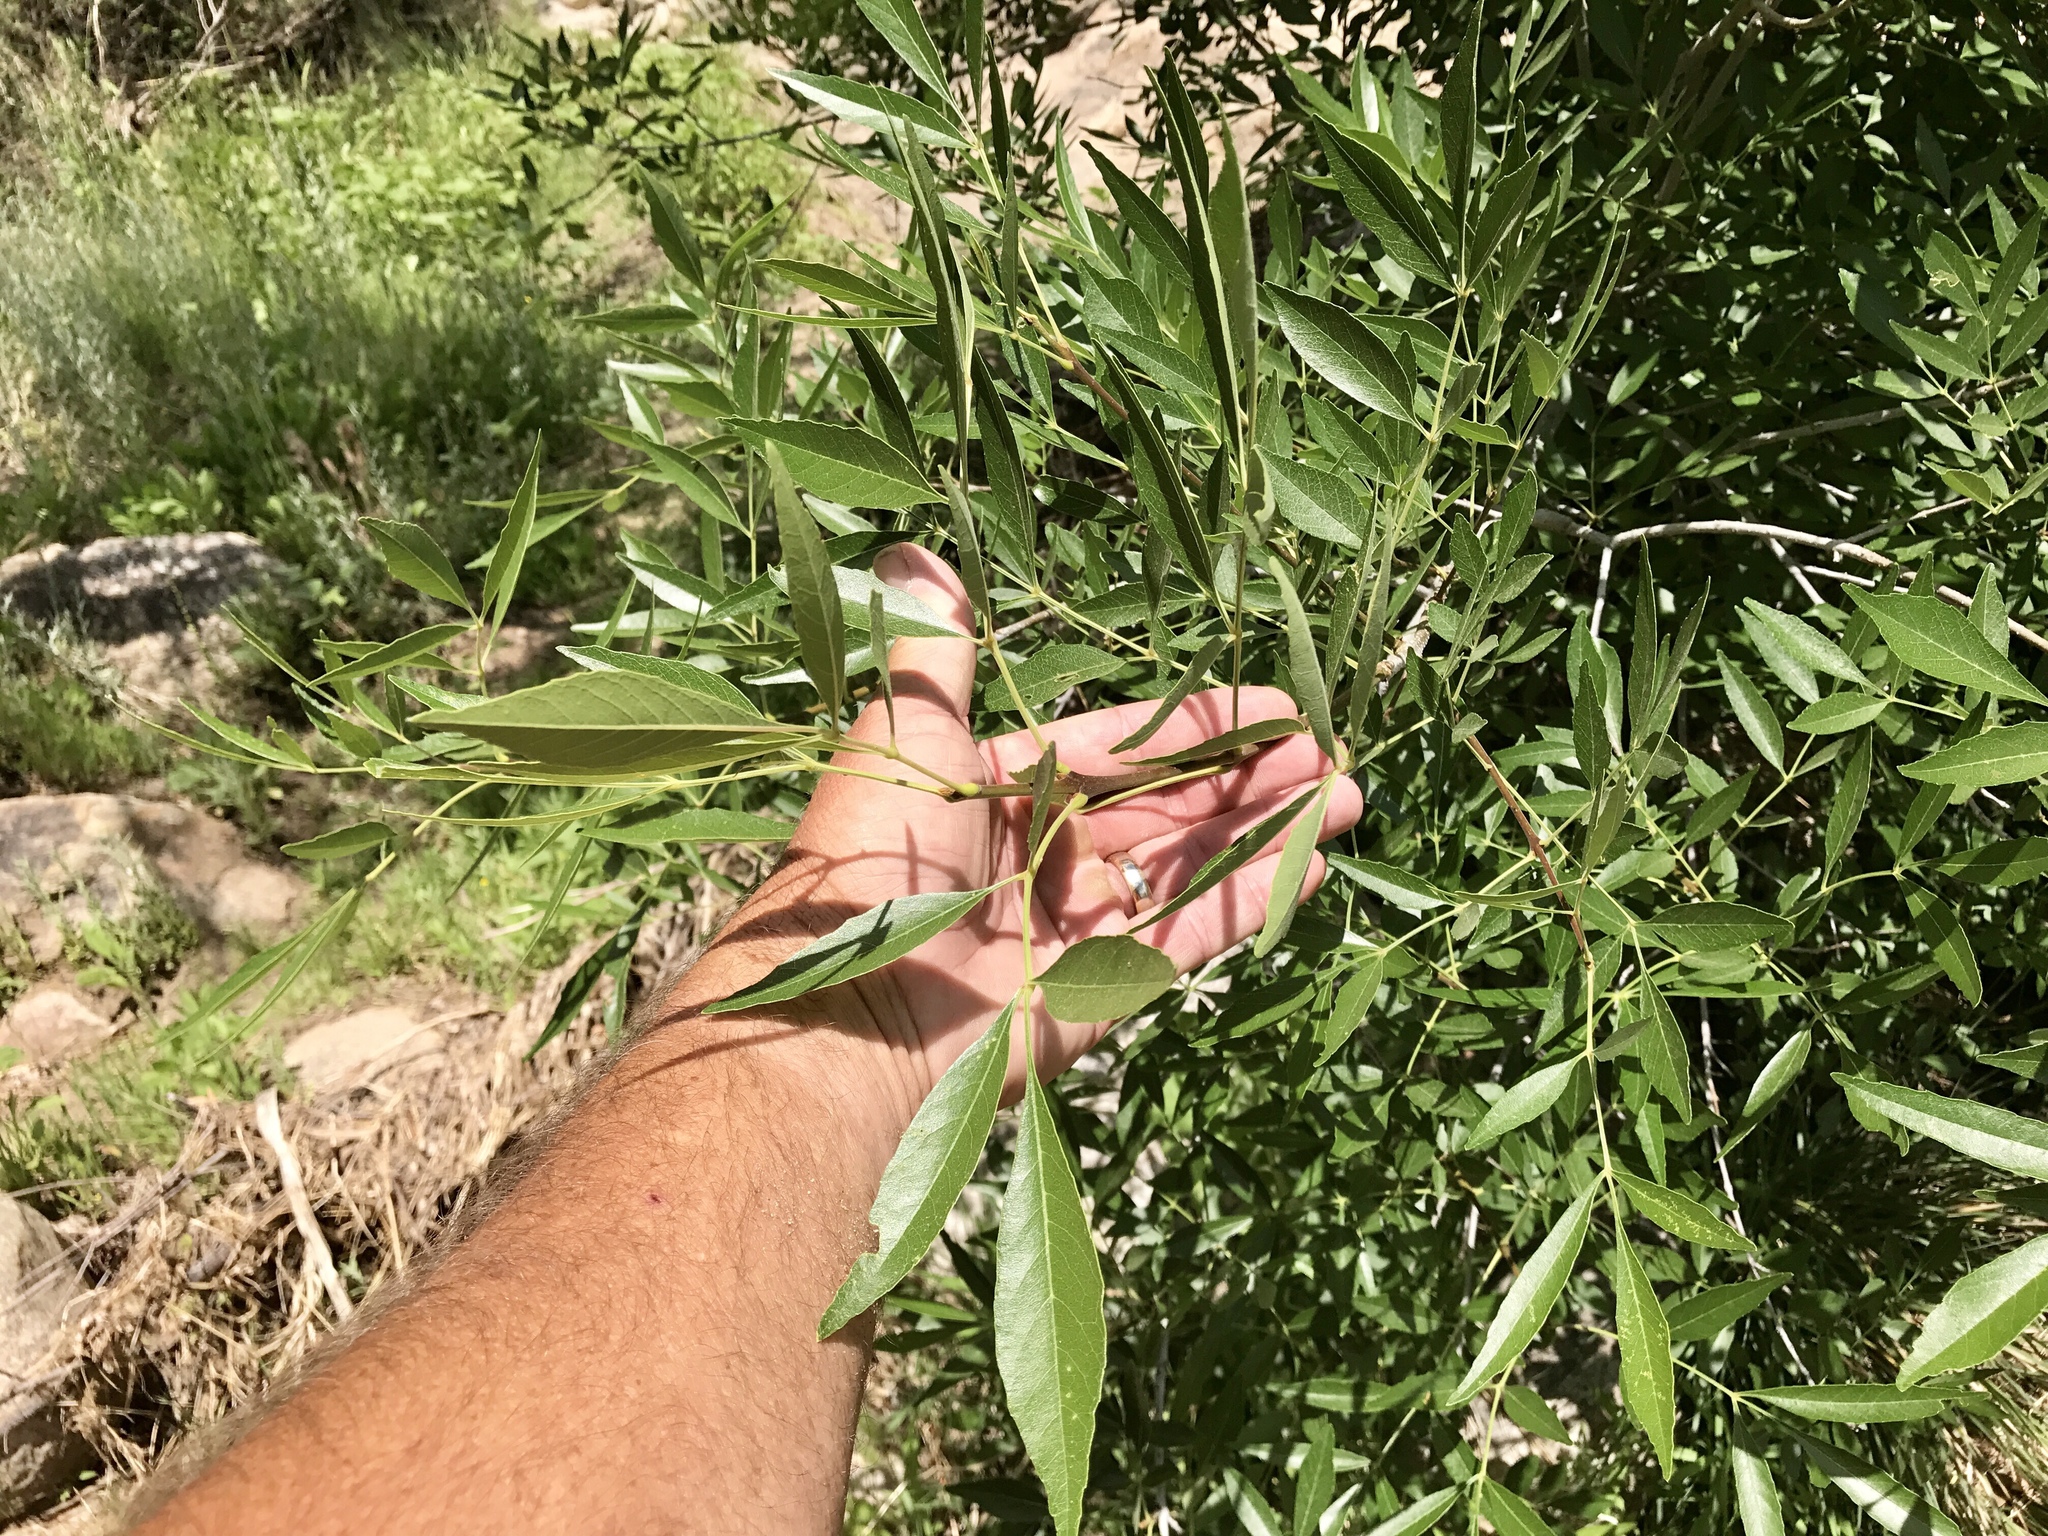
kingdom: Plantae
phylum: Tracheophyta
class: Magnoliopsida
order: Lamiales
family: Oleaceae
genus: Fraxinus
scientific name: Fraxinus velutina
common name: Arizon ash
